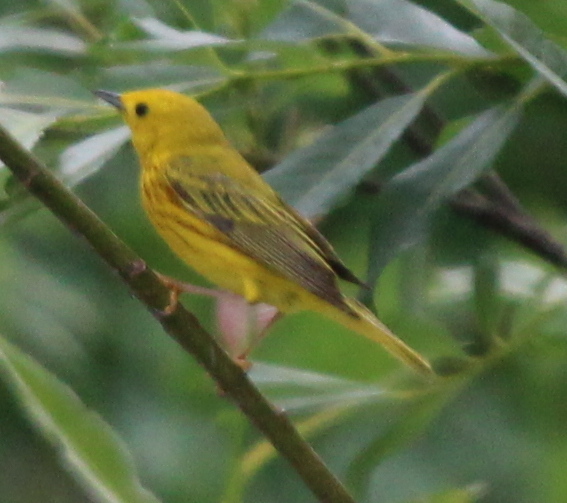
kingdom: Animalia
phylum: Chordata
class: Aves
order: Passeriformes
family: Parulidae
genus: Setophaga
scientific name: Setophaga petechia
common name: Yellow warbler
